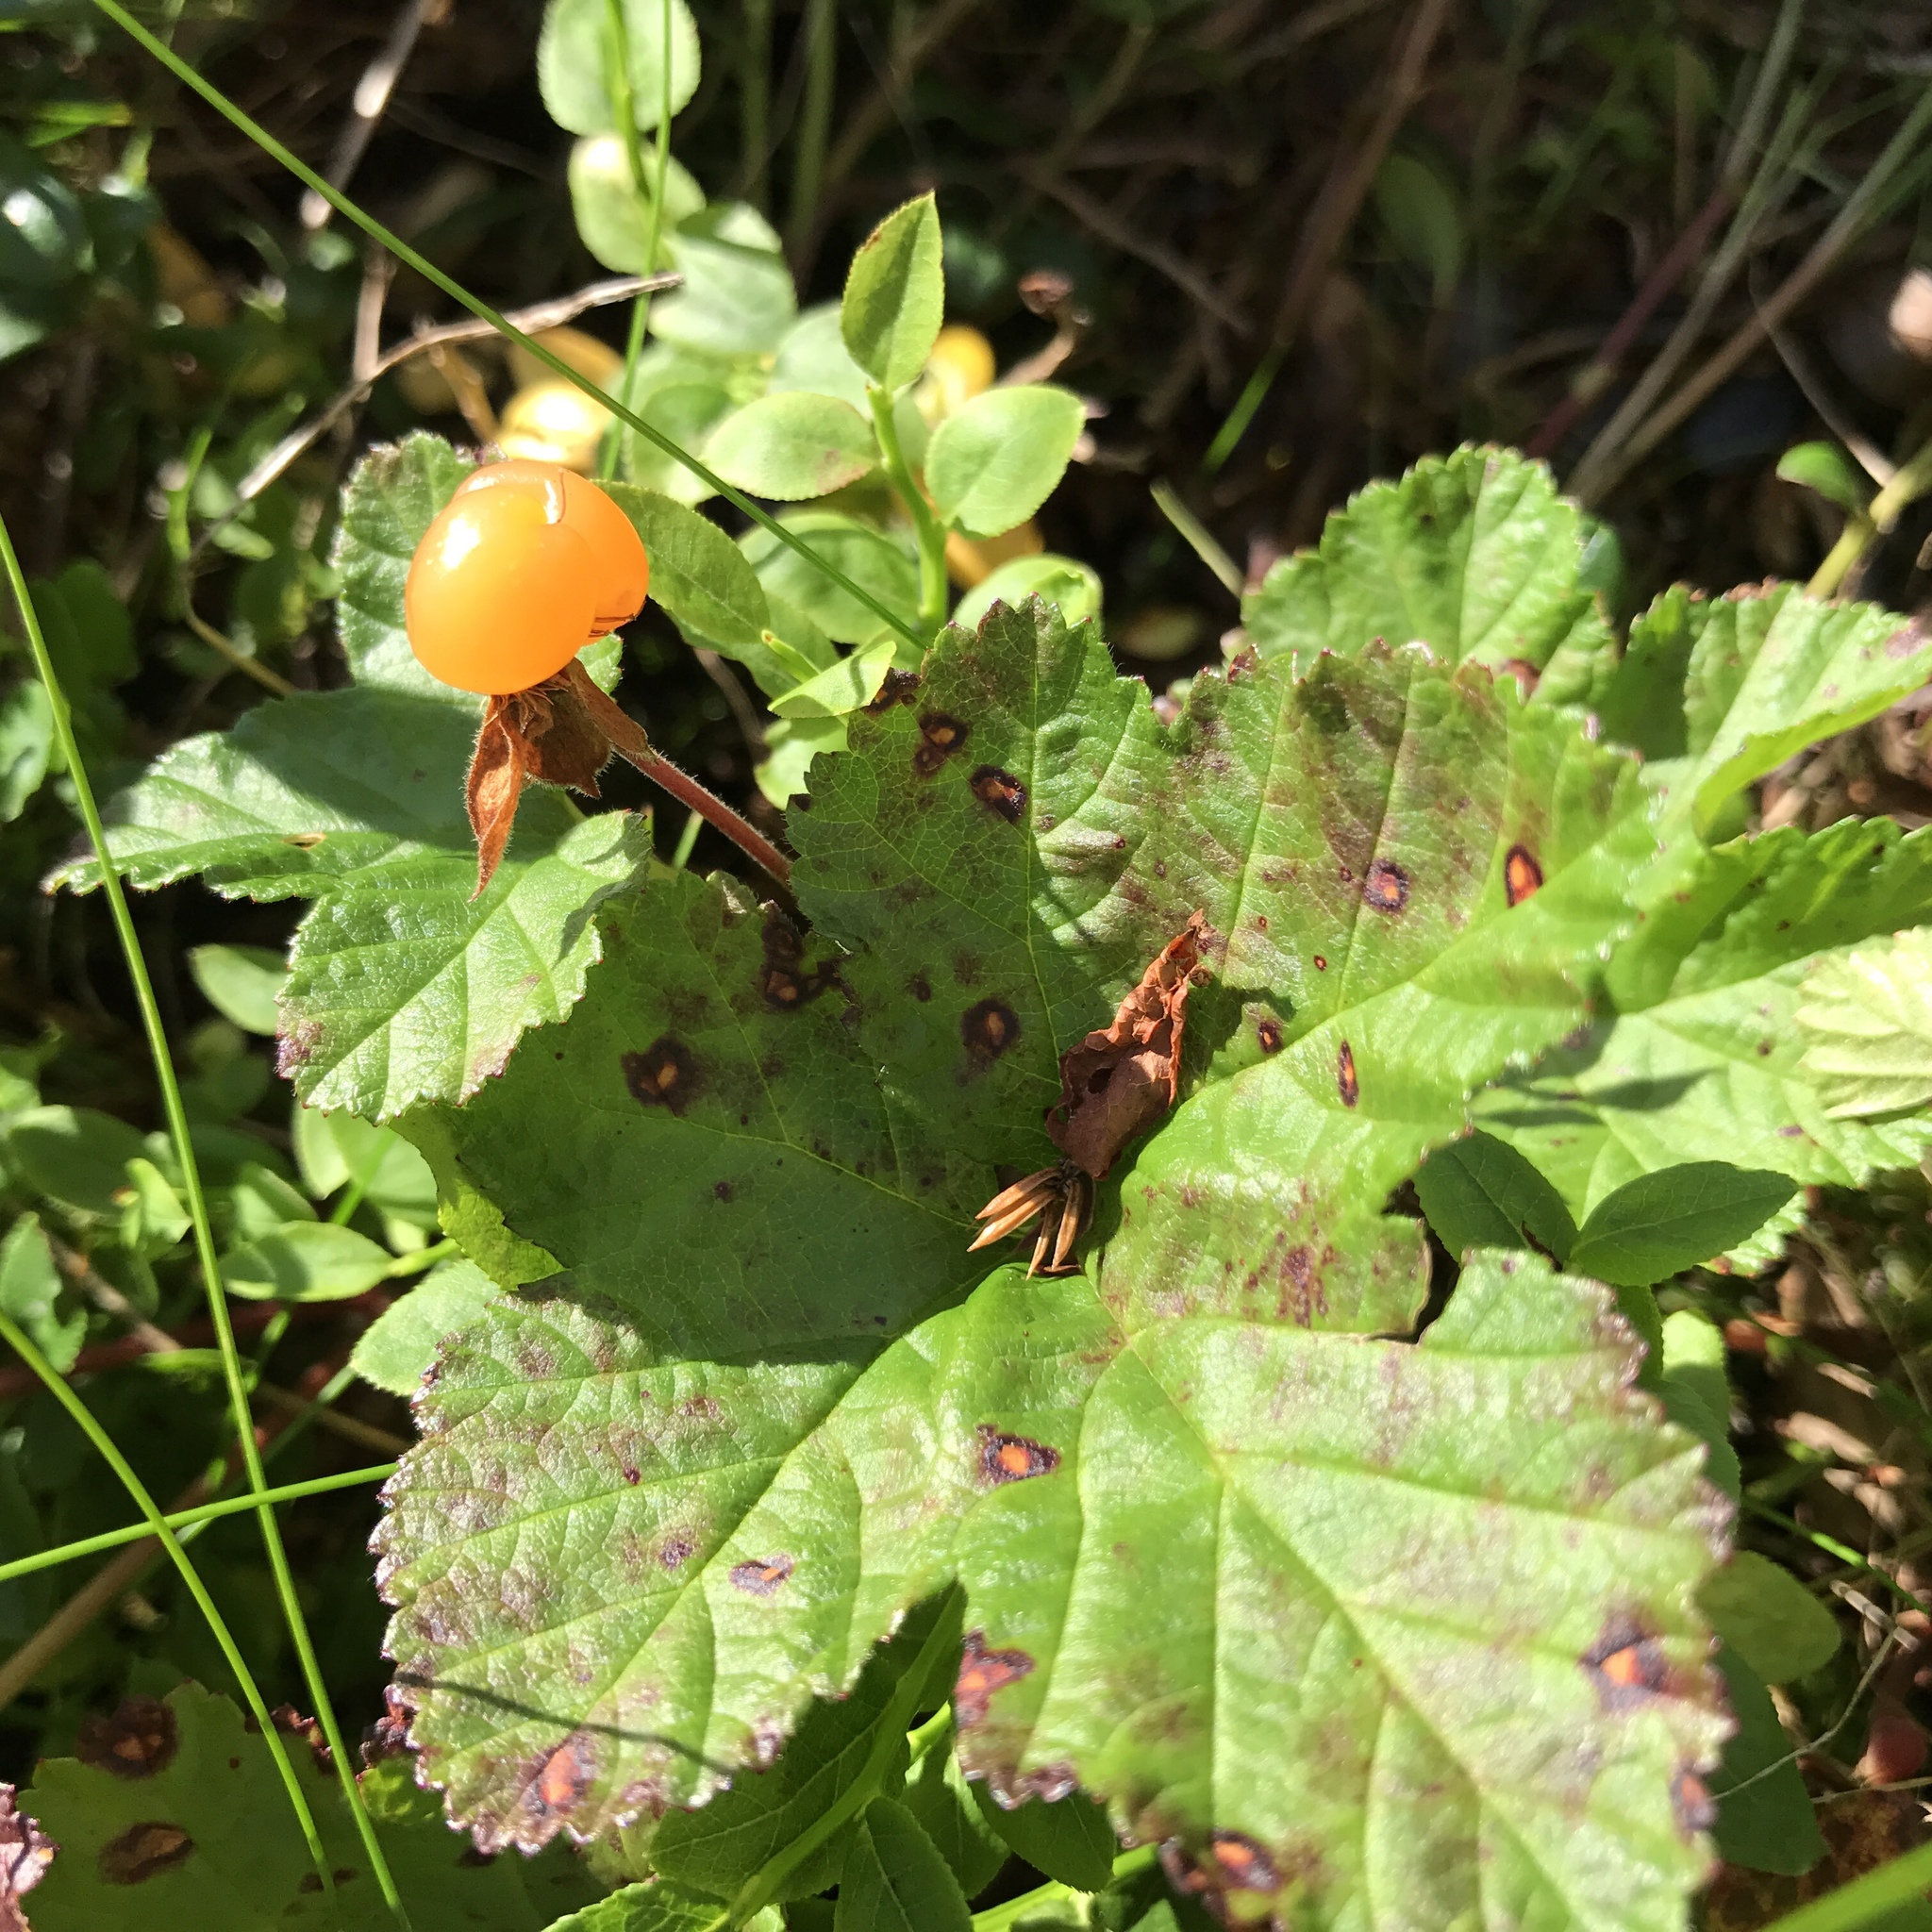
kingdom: Plantae
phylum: Tracheophyta
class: Magnoliopsida
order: Rosales
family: Rosaceae
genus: Rubus
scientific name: Rubus chamaemorus
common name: Cloudberry
